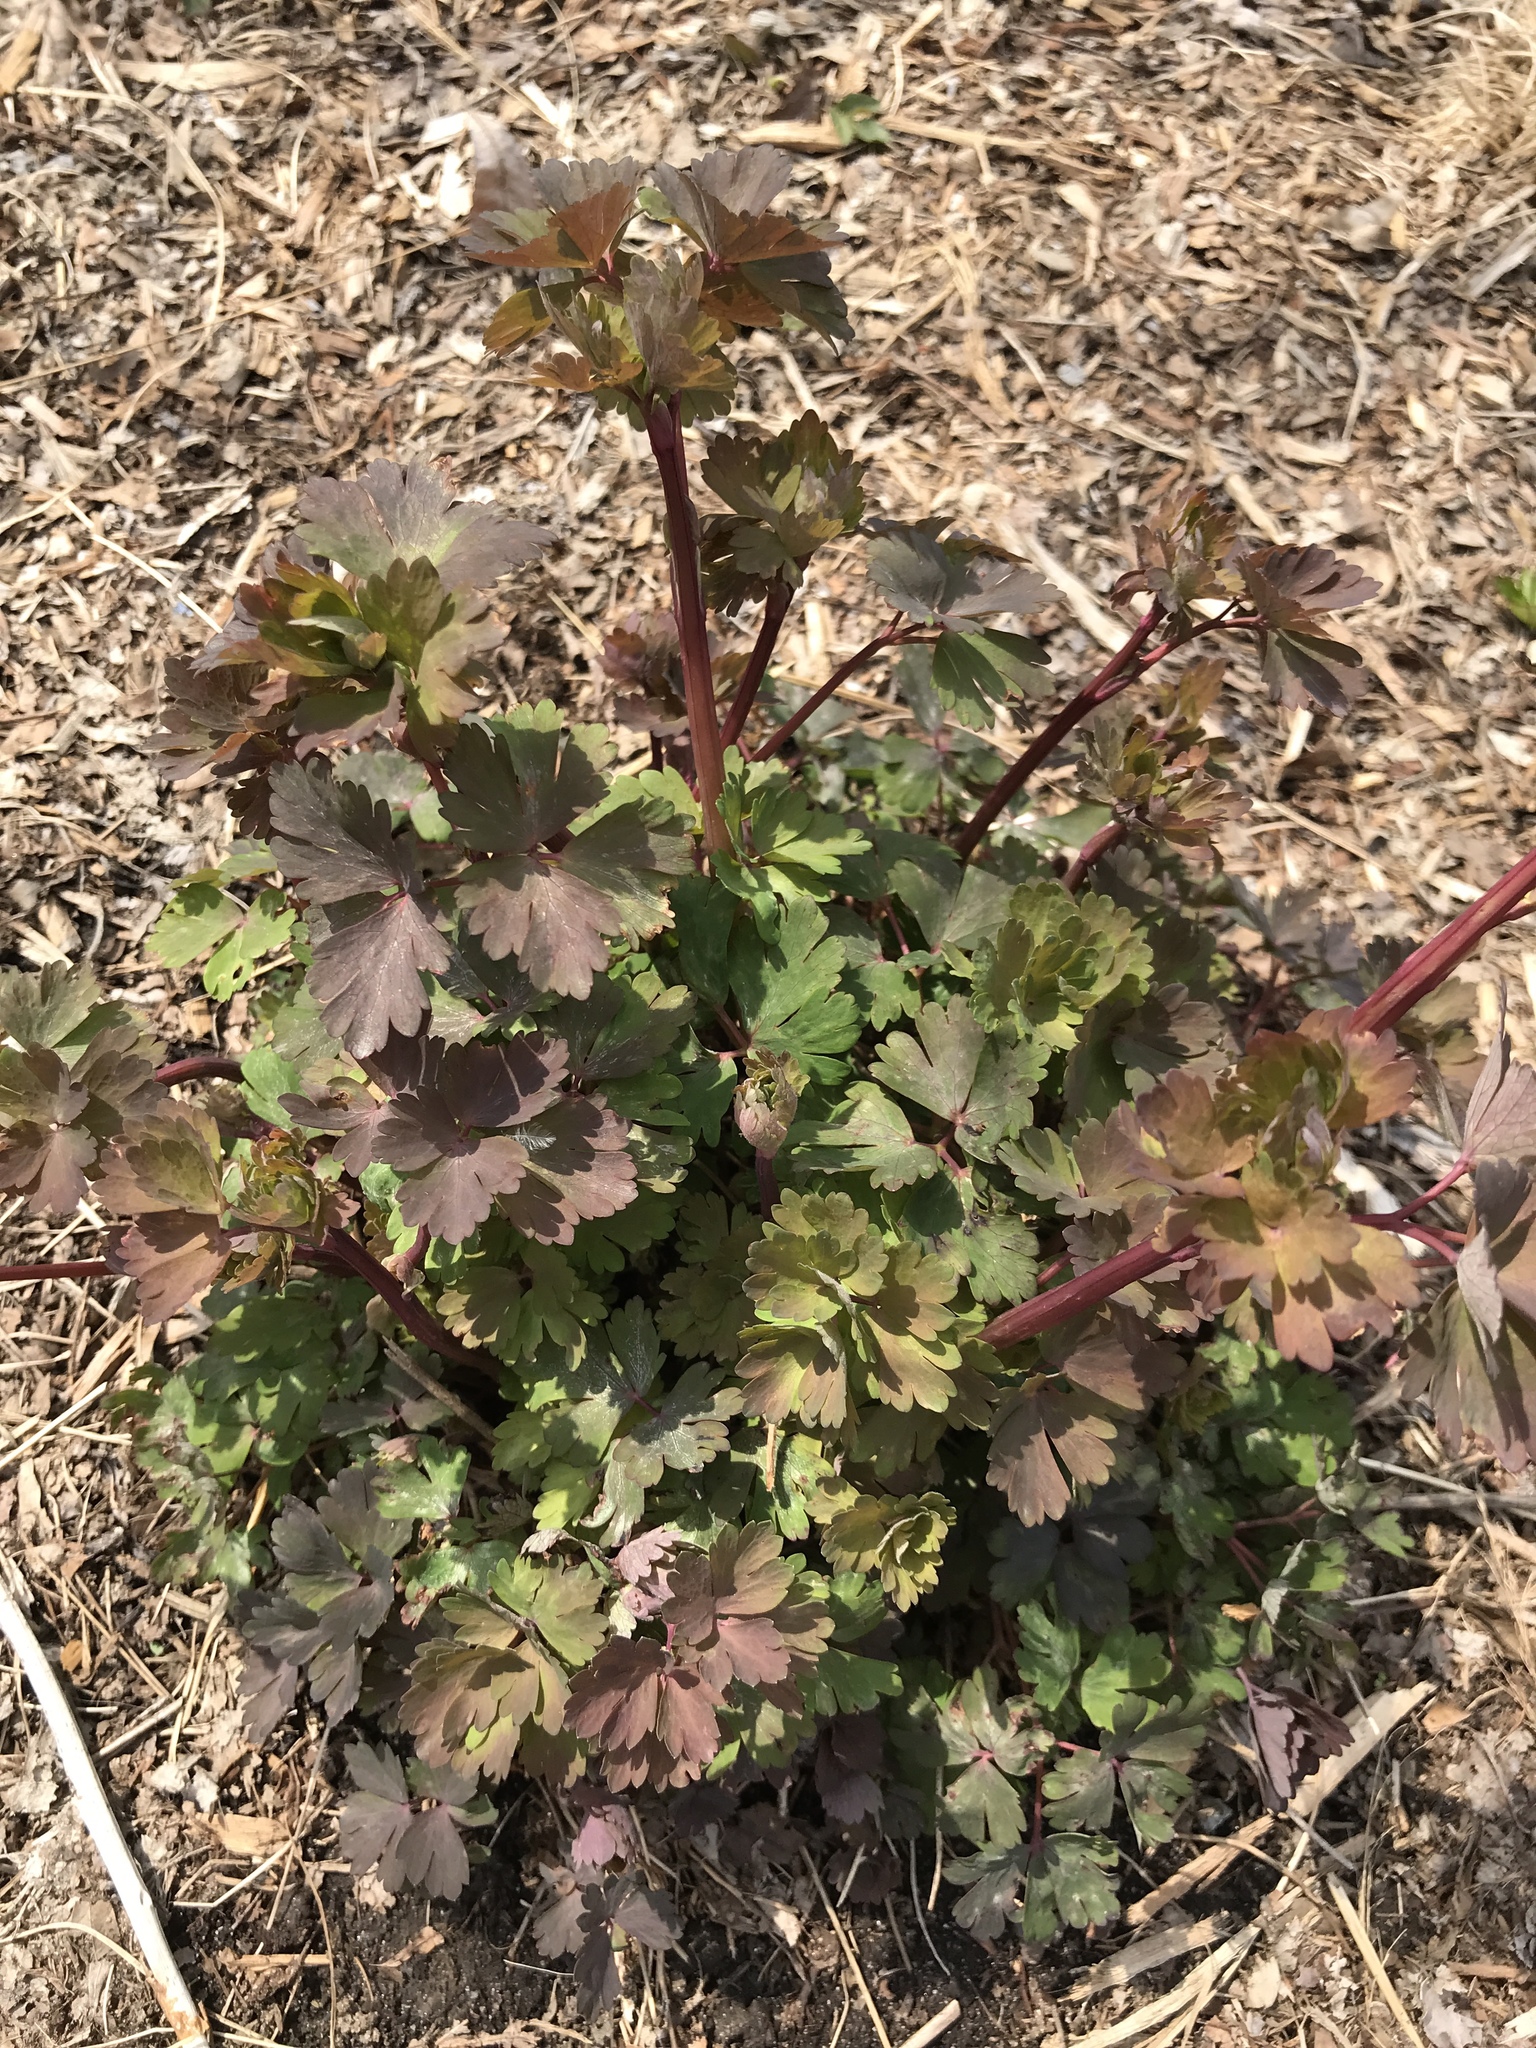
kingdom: Plantae
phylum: Tracheophyta
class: Magnoliopsida
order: Ranunculales
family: Ranunculaceae
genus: Aquilegia
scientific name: Aquilegia canadensis
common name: American columbine
